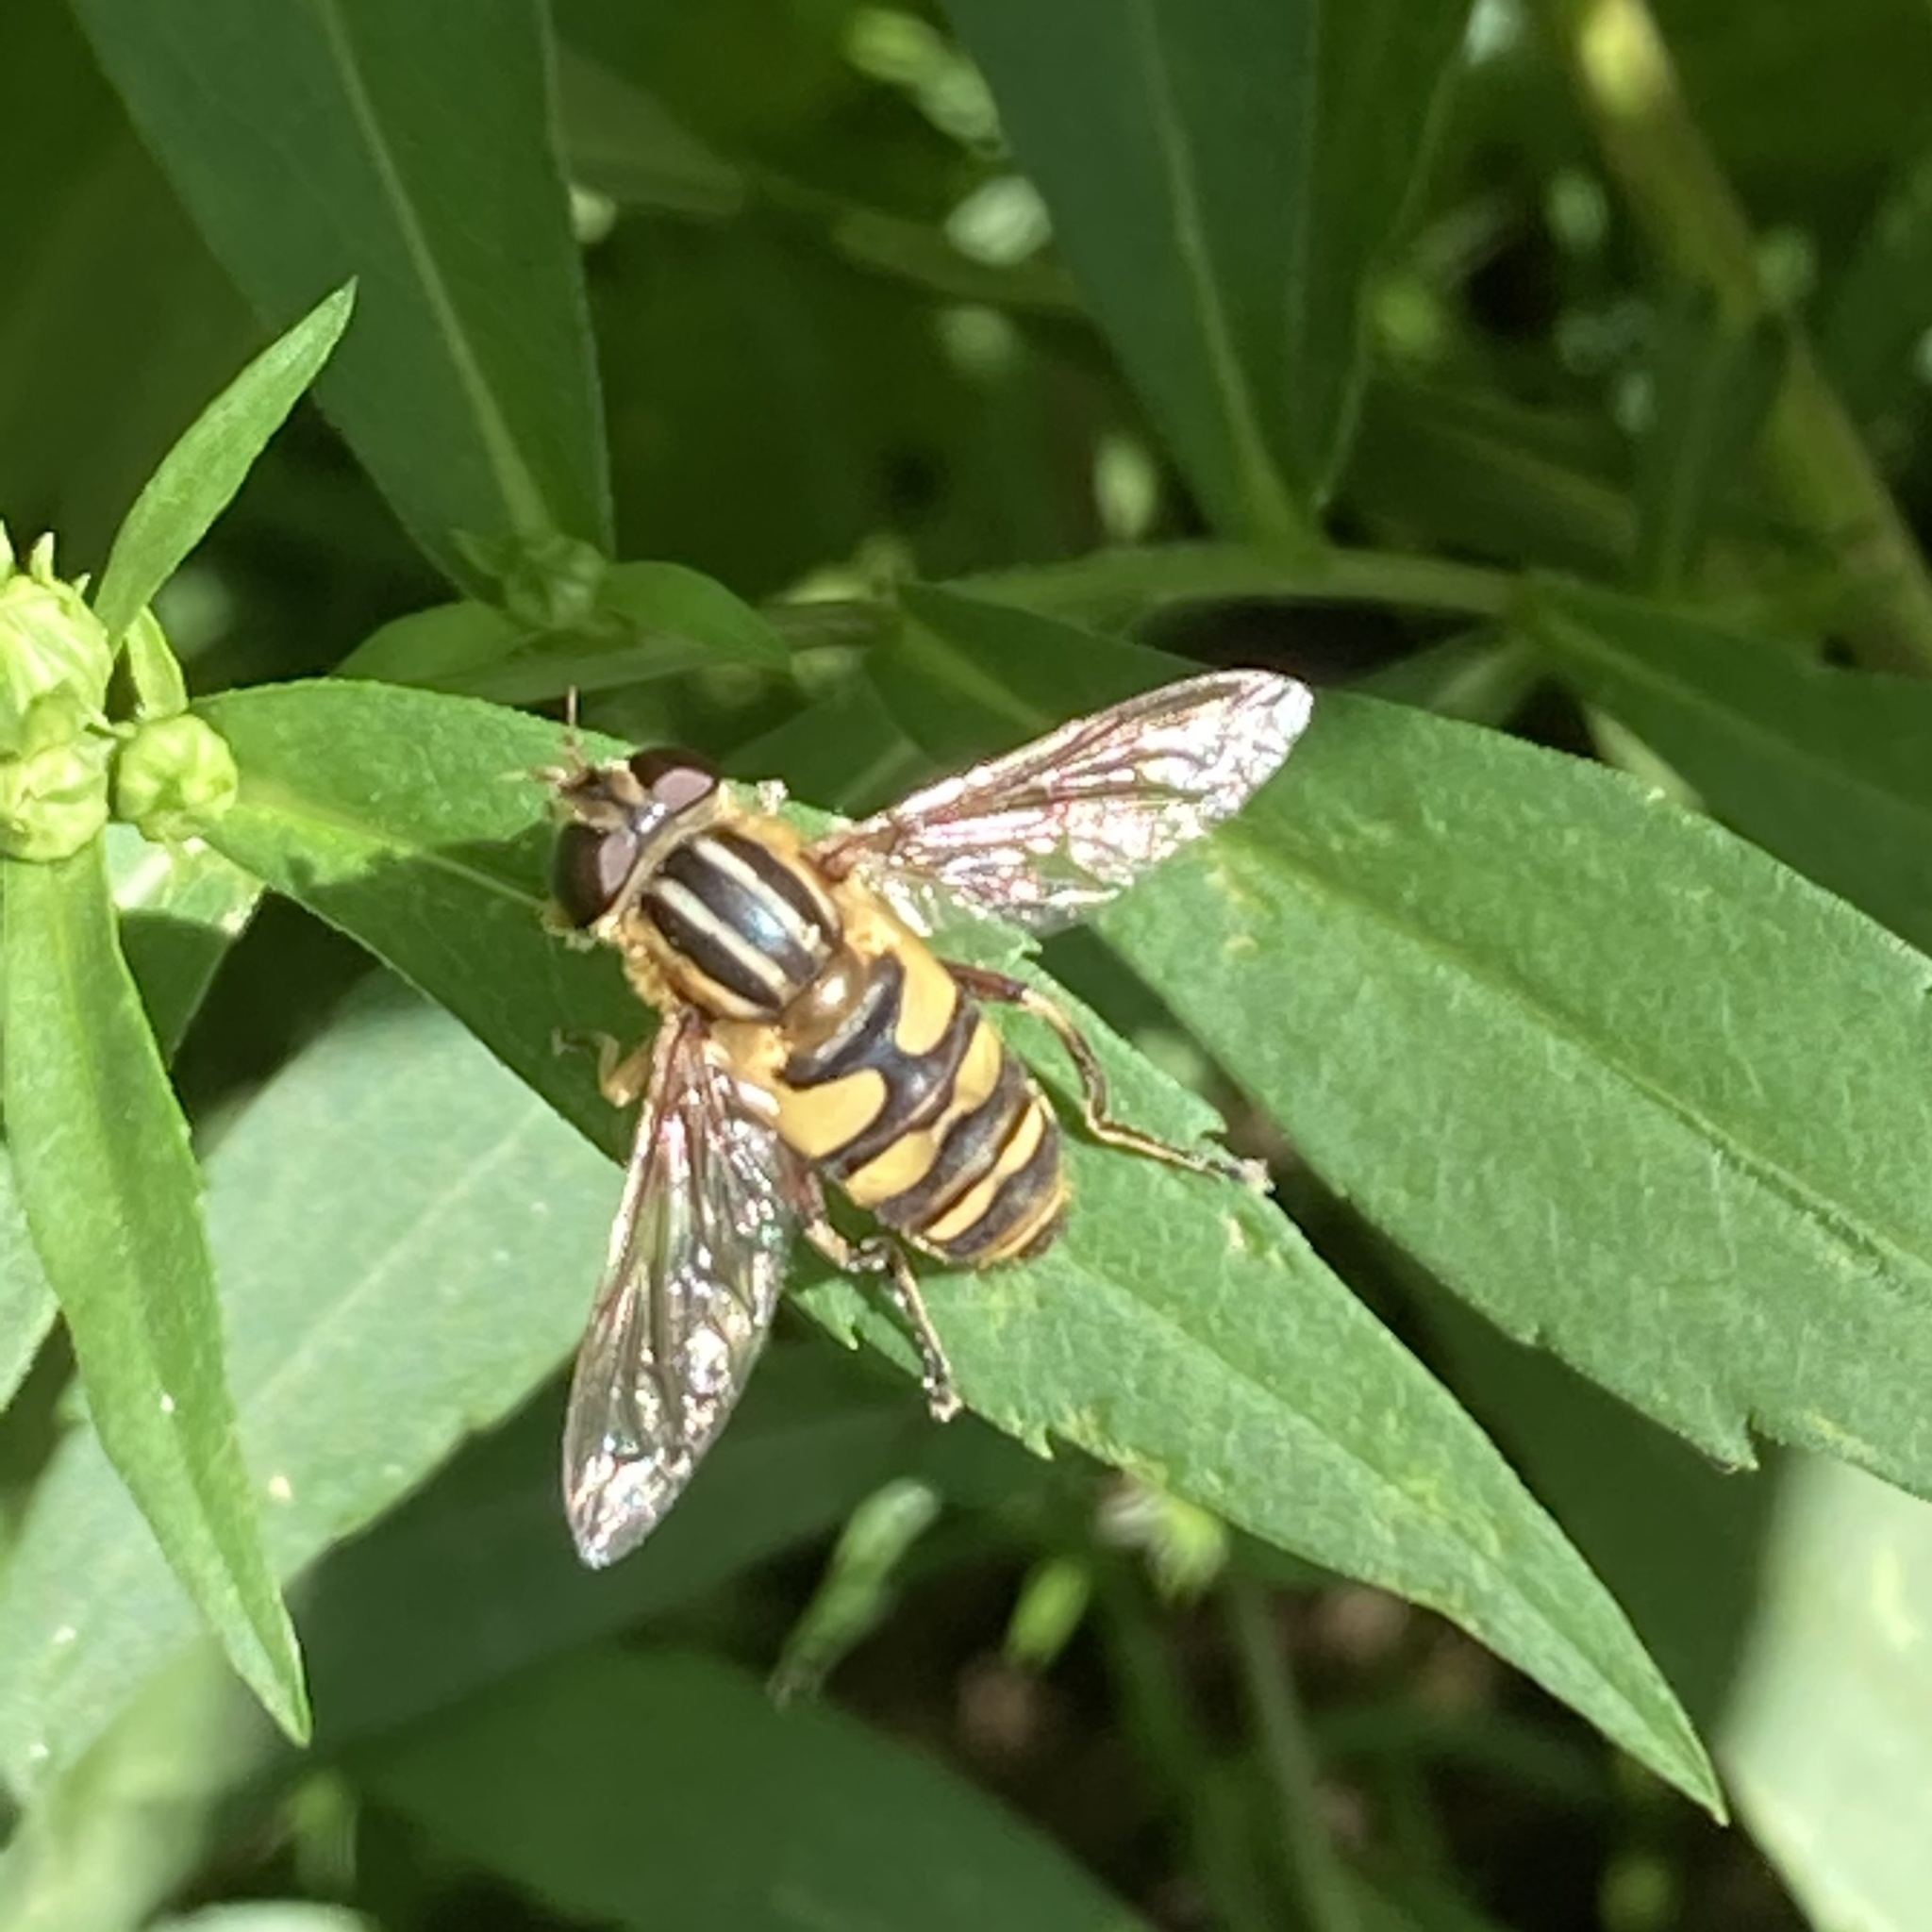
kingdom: Animalia
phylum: Arthropoda
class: Insecta
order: Diptera
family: Syrphidae
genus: Helophilus
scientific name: Helophilus fasciatus
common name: Narrow-headed marsh fly
